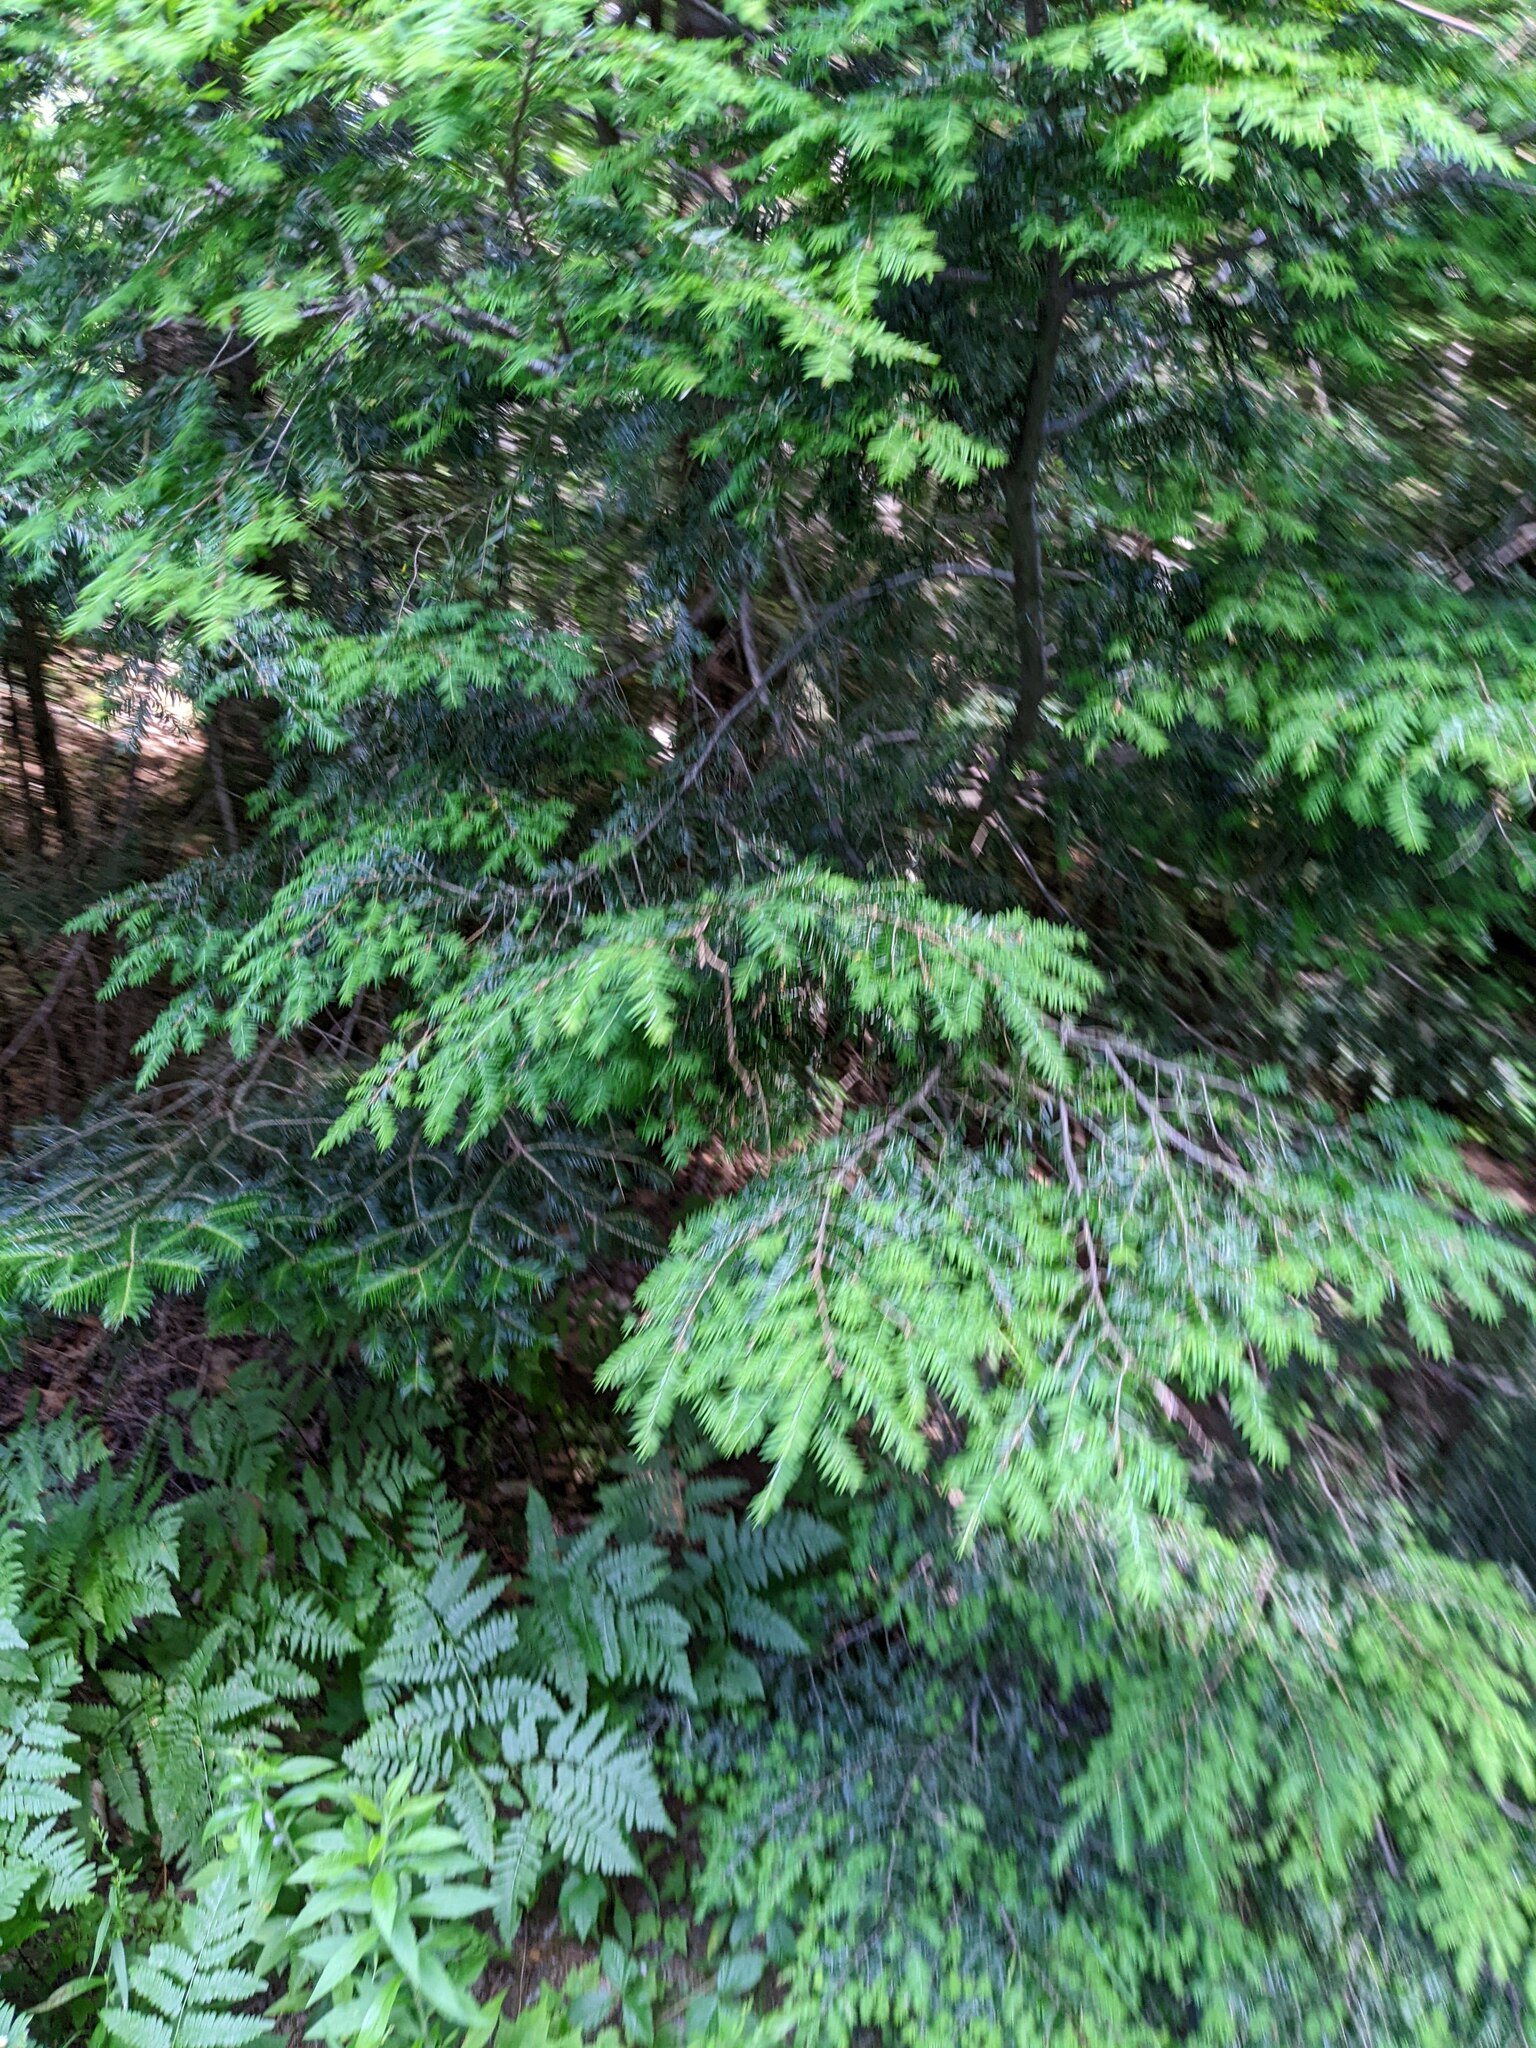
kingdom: Plantae
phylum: Tracheophyta
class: Pinopsida
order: Pinales
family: Pinaceae
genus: Tsuga
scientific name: Tsuga canadensis
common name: Eastern hemlock
